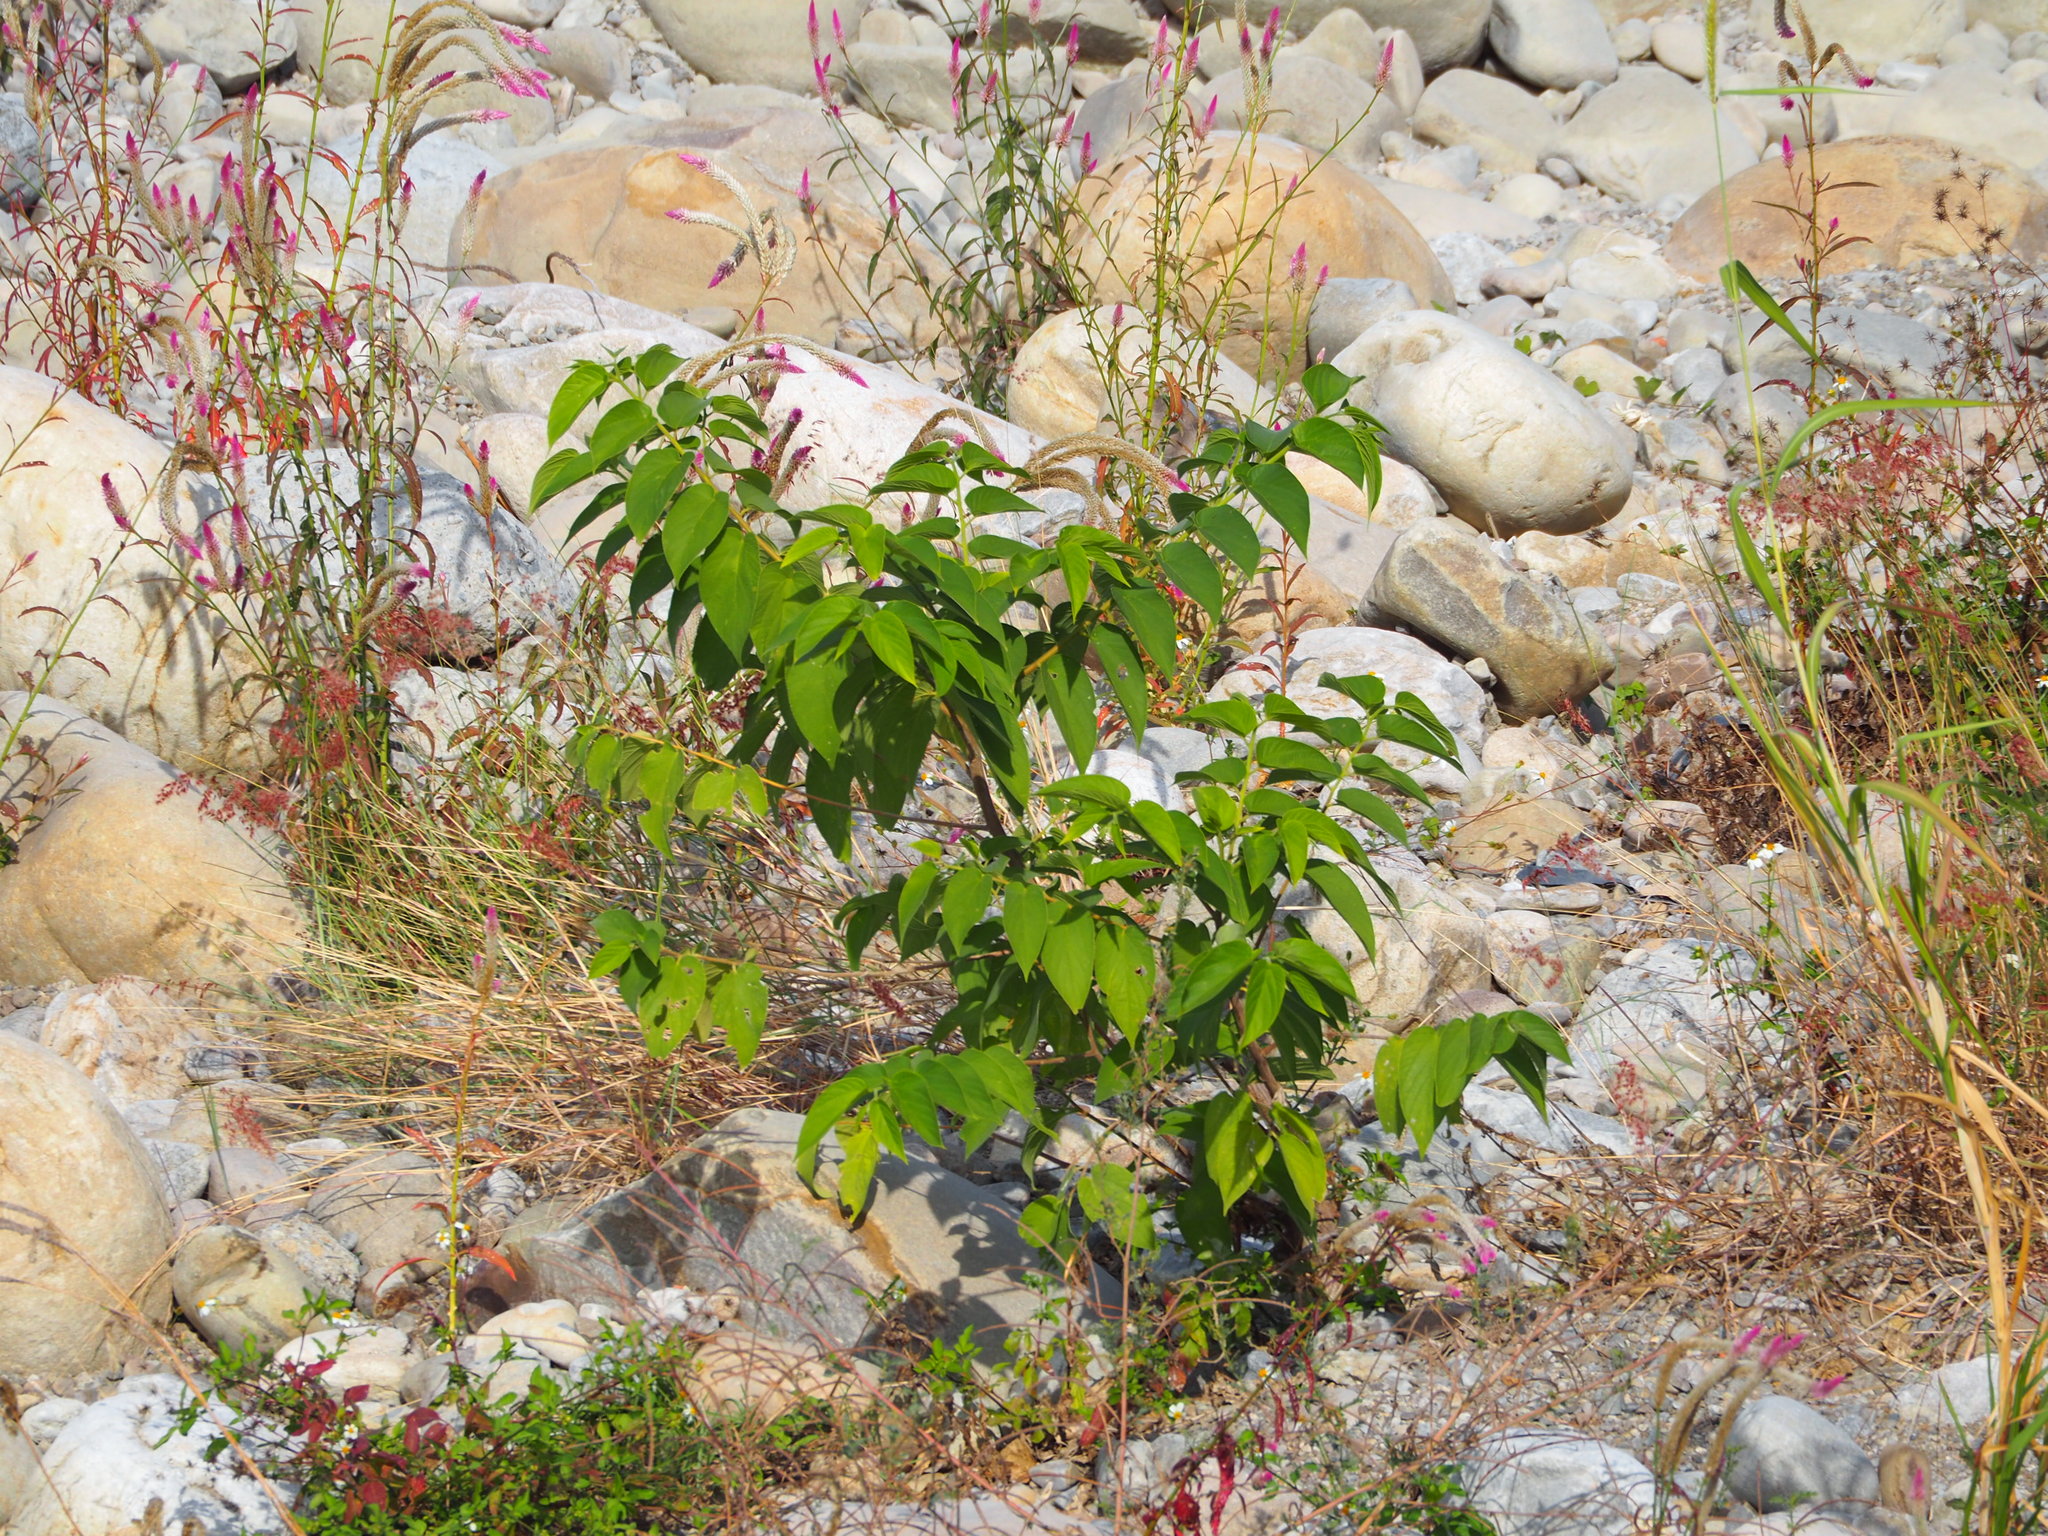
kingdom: Plantae
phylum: Tracheophyta
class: Magnoliopsida
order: Rosales
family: Cannabaceae
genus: Trema
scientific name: Trema orientale
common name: Indian charcoal tree
